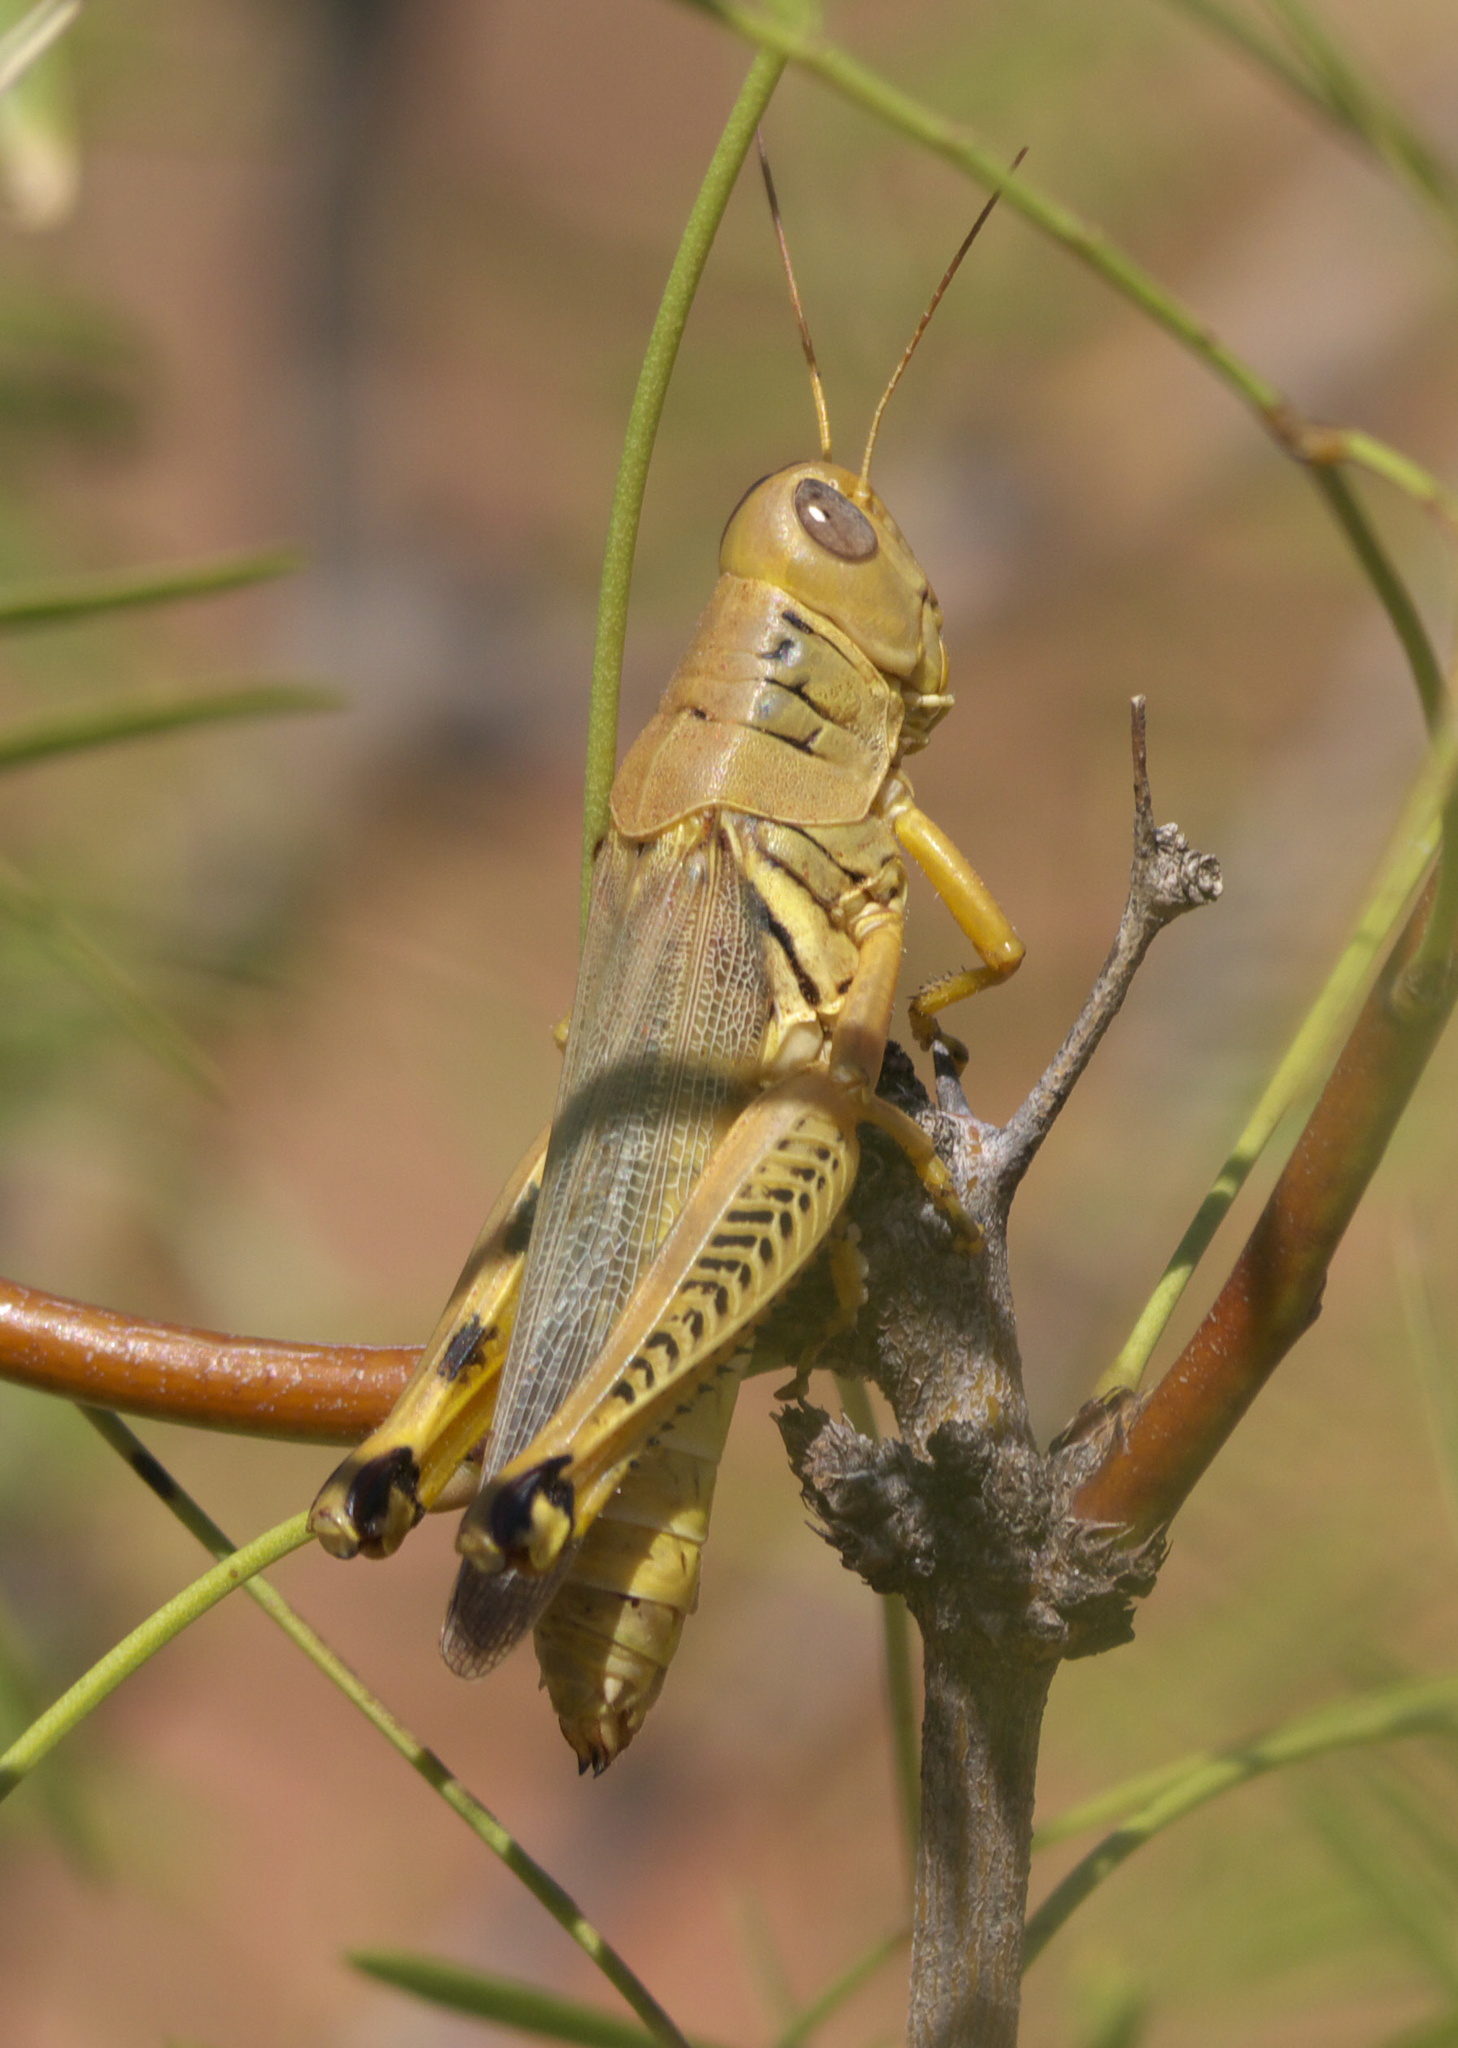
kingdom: Animalia
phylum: Arthropoda
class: Insecta
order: Orthoptera
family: Acrididae
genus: Melanoplus
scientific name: Melanoplus differentialis
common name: Differential grasshopper
